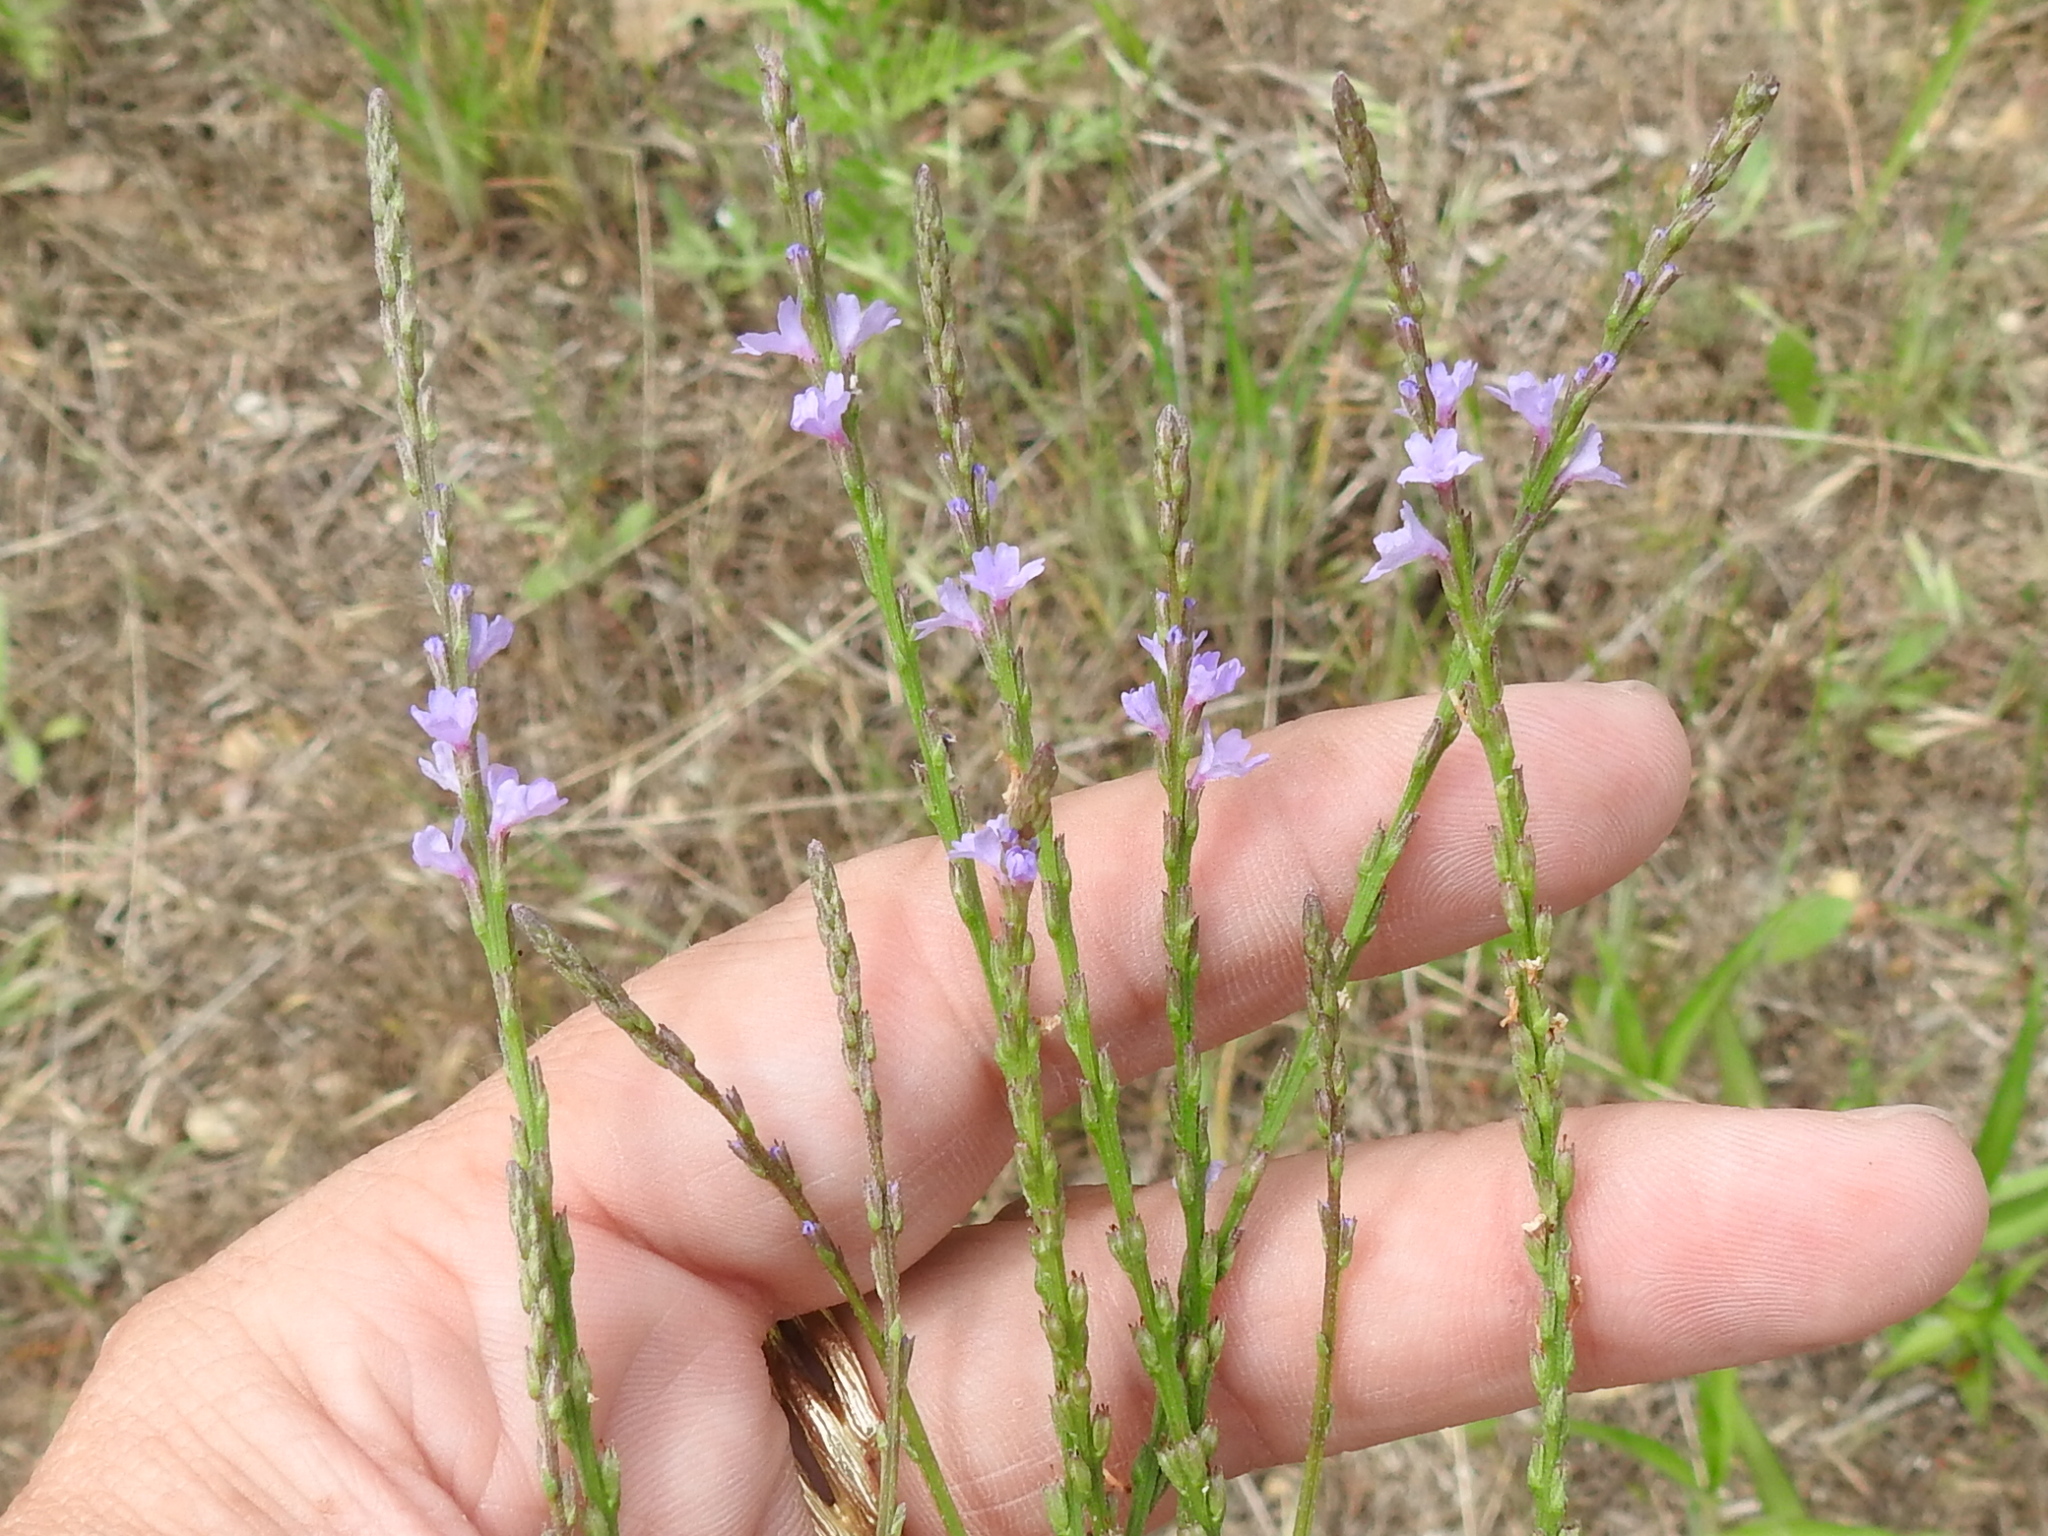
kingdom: Plantae
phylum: Tracheophyta
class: Magnoliopsida
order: Lamiales
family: Verbenaceae
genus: Verbena
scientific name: Verbena halei
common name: Texas vervain
